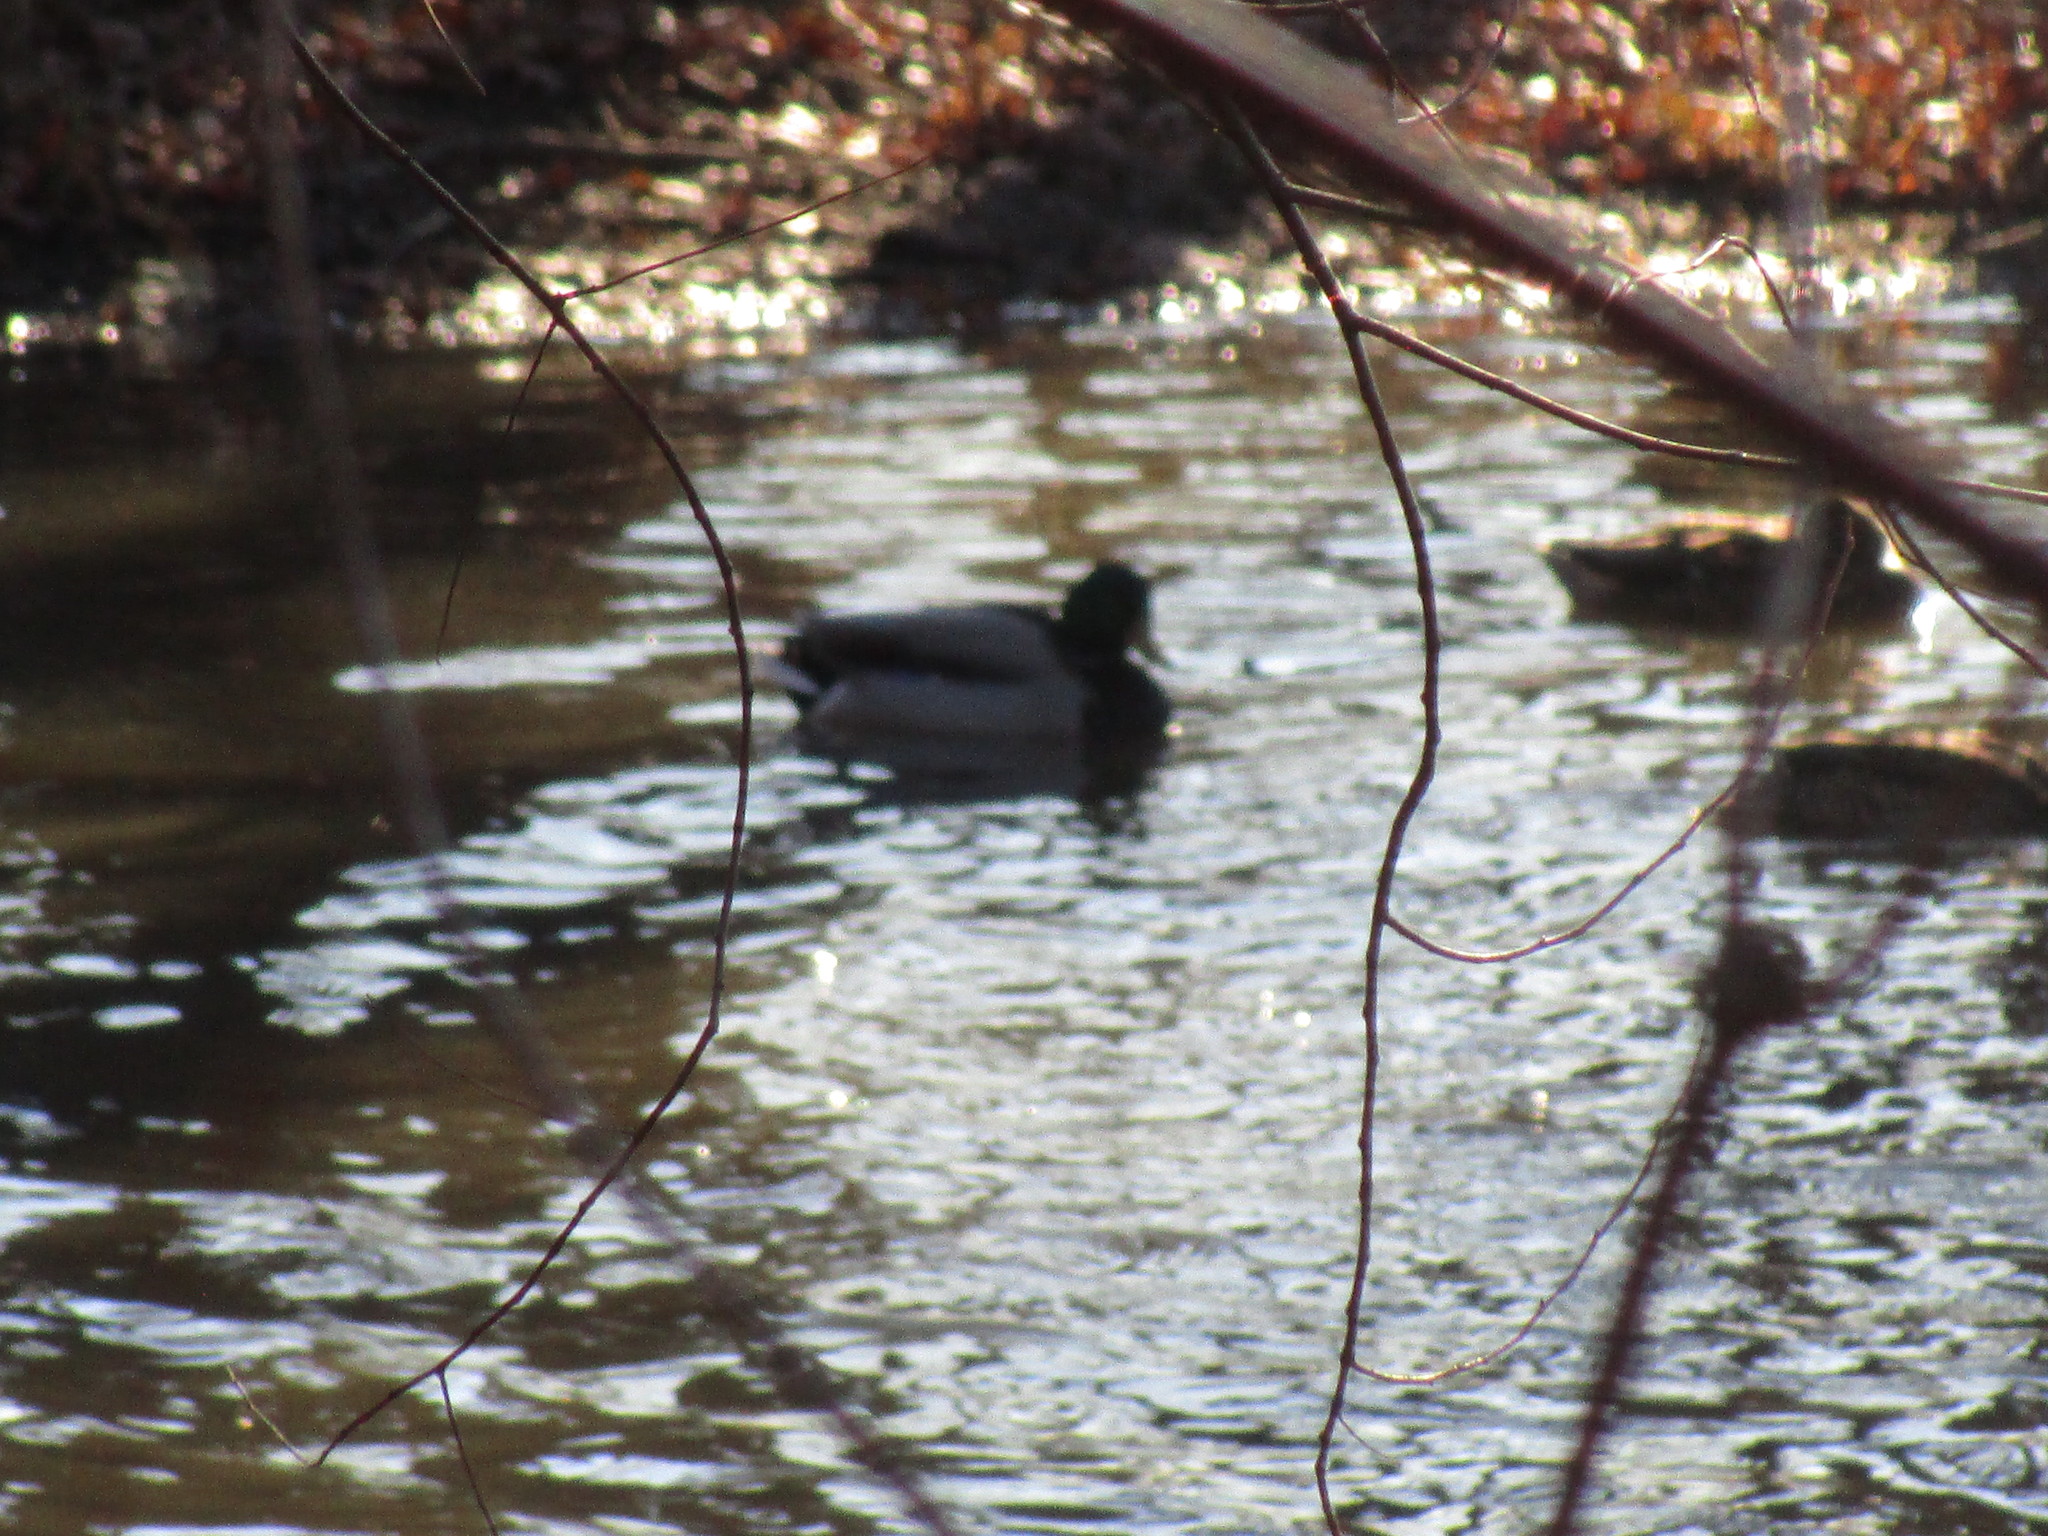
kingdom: Animalia
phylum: Chordata
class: Aves
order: Anseriformes
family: Anatidae
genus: Anas
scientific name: Anas platyrhynchos
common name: Mallard
